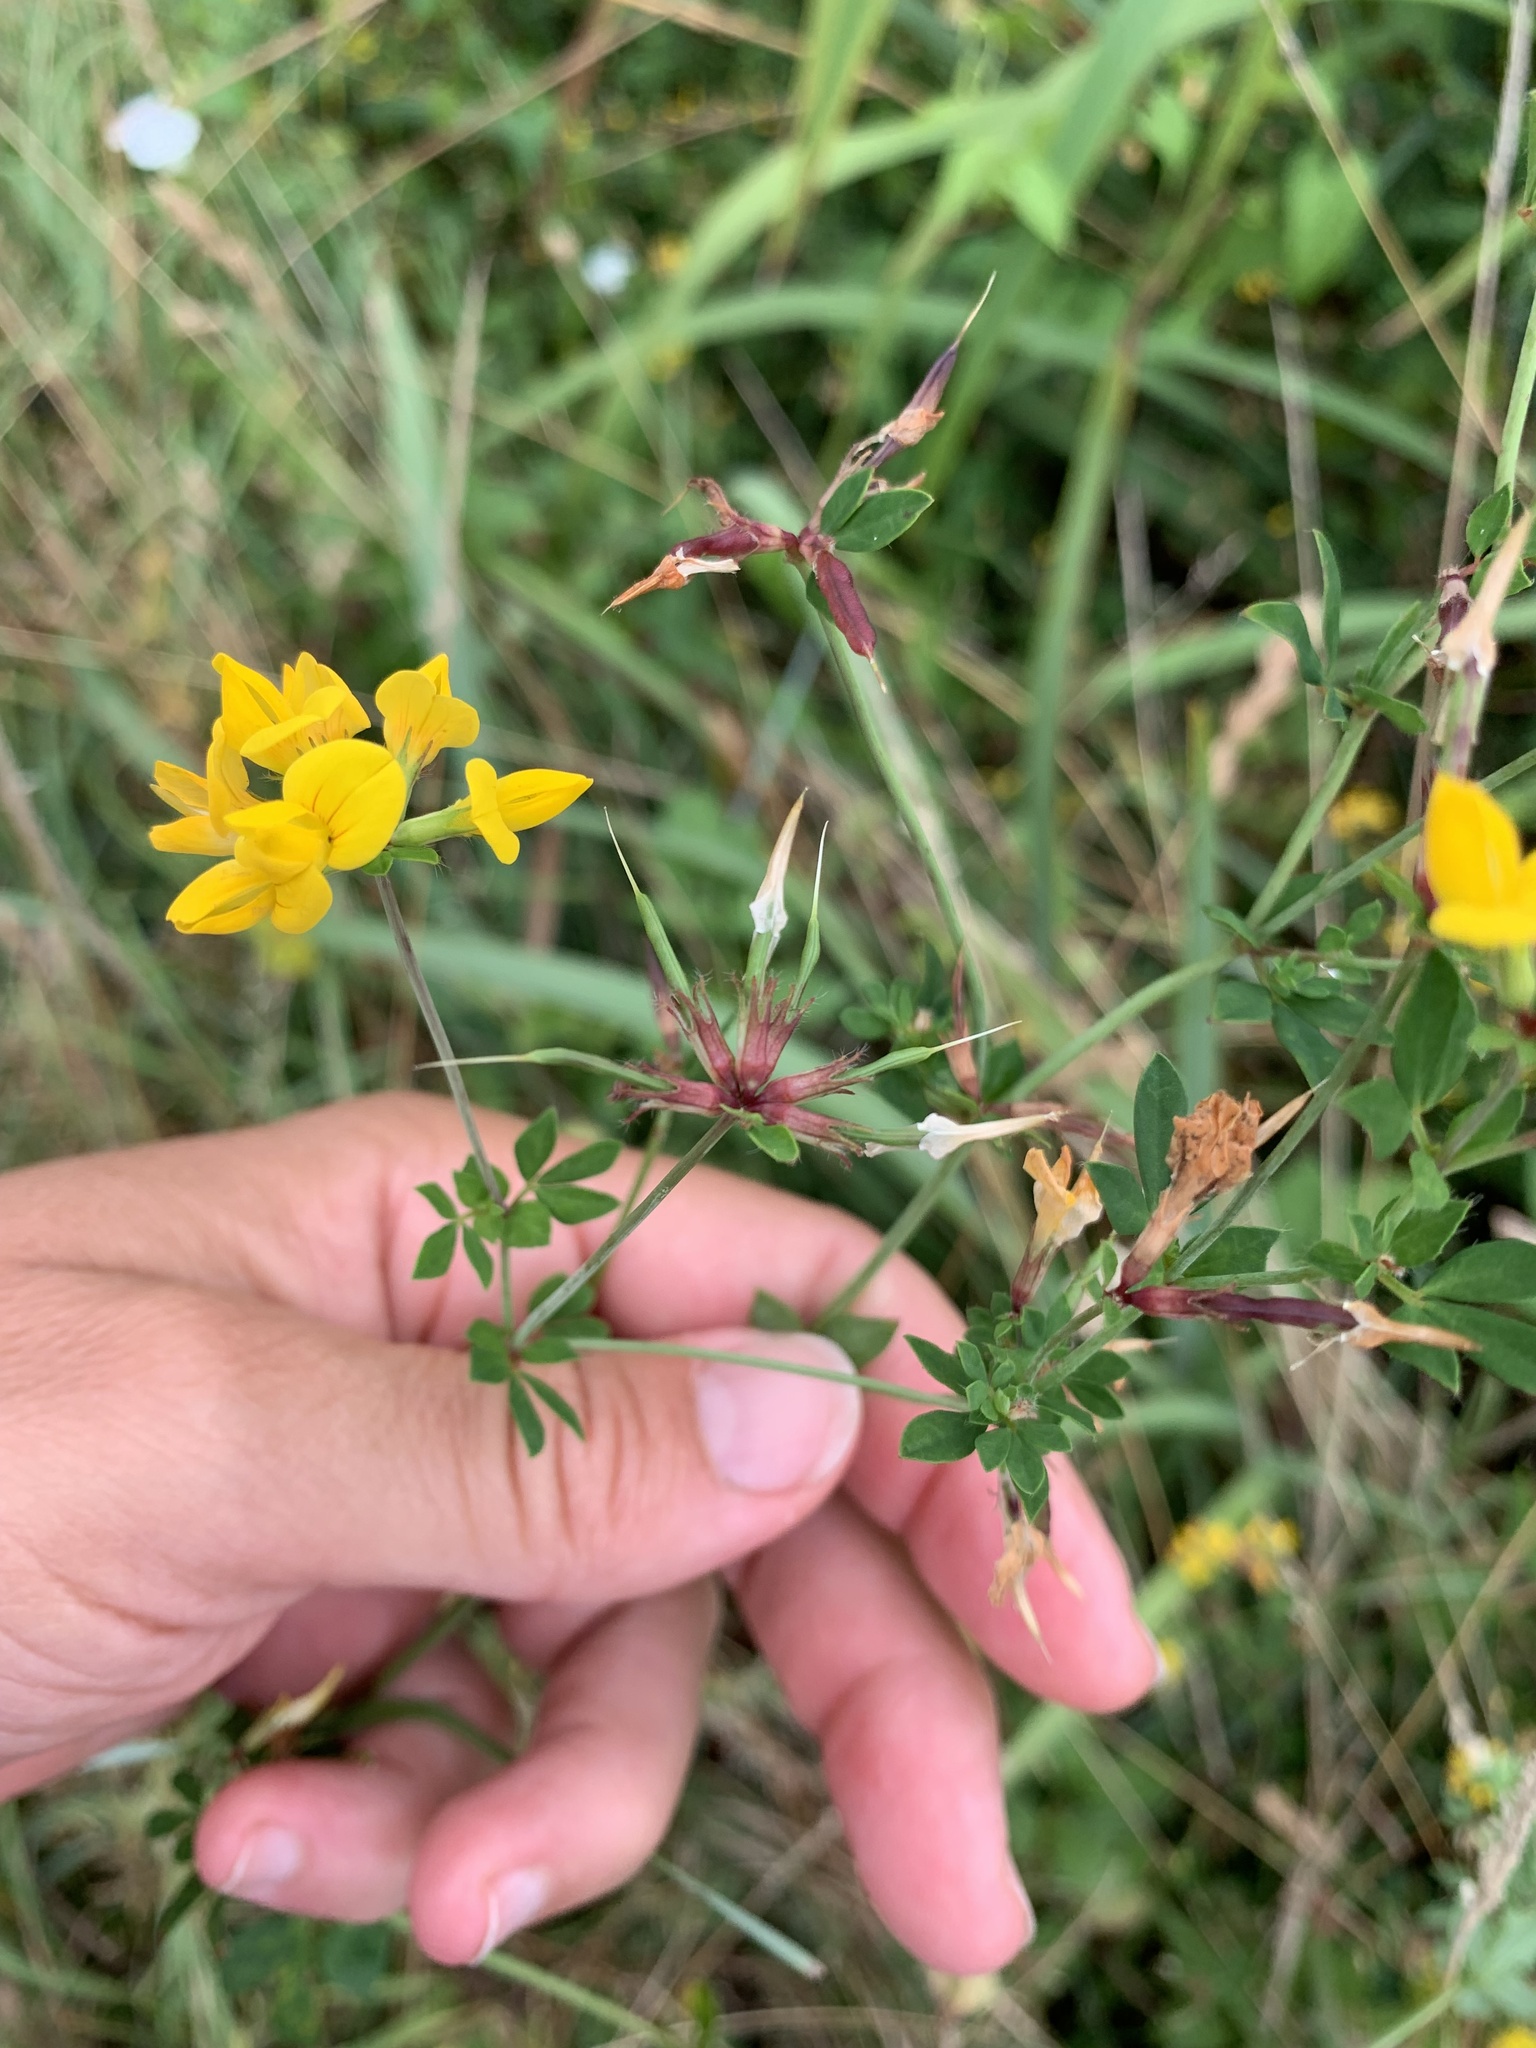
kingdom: Plantae
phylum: Tracheophyta
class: Magnoliopsida
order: Fabales
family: Fabaceae
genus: Lotus
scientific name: Lotus pedunculatus
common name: Greater birdsfoot-trefoil
